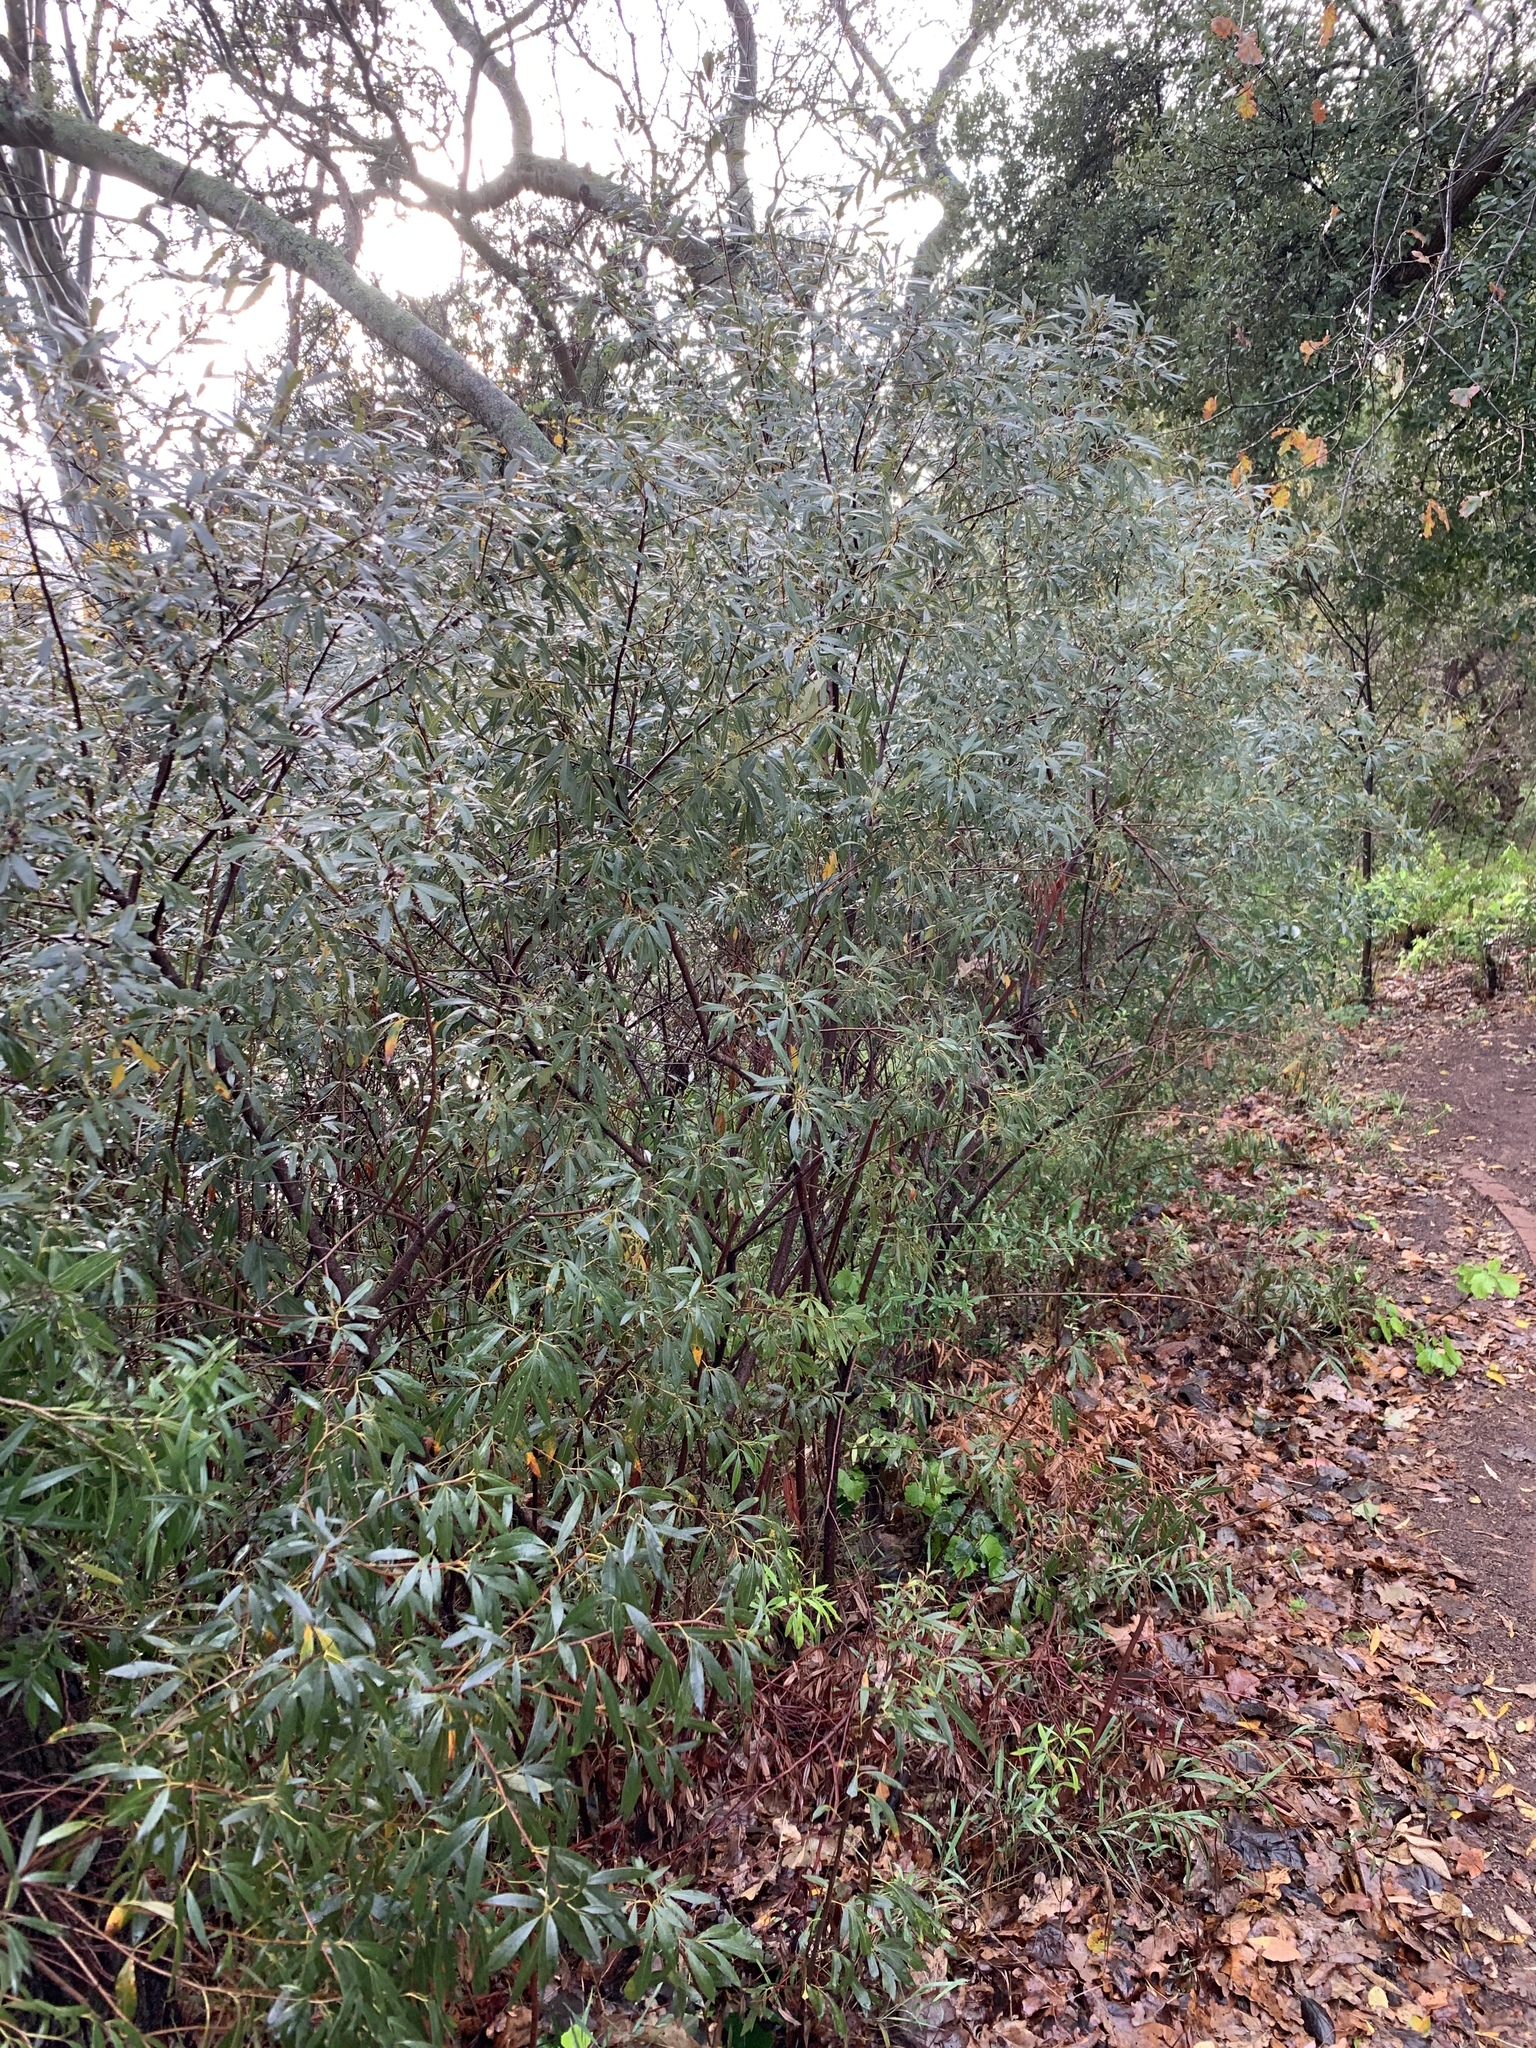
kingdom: Plantae
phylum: Tracheophyta
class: Magnoliopsida
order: Sapindales
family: Anacardiaceae
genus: Searsia
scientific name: Searsia angustifolia
